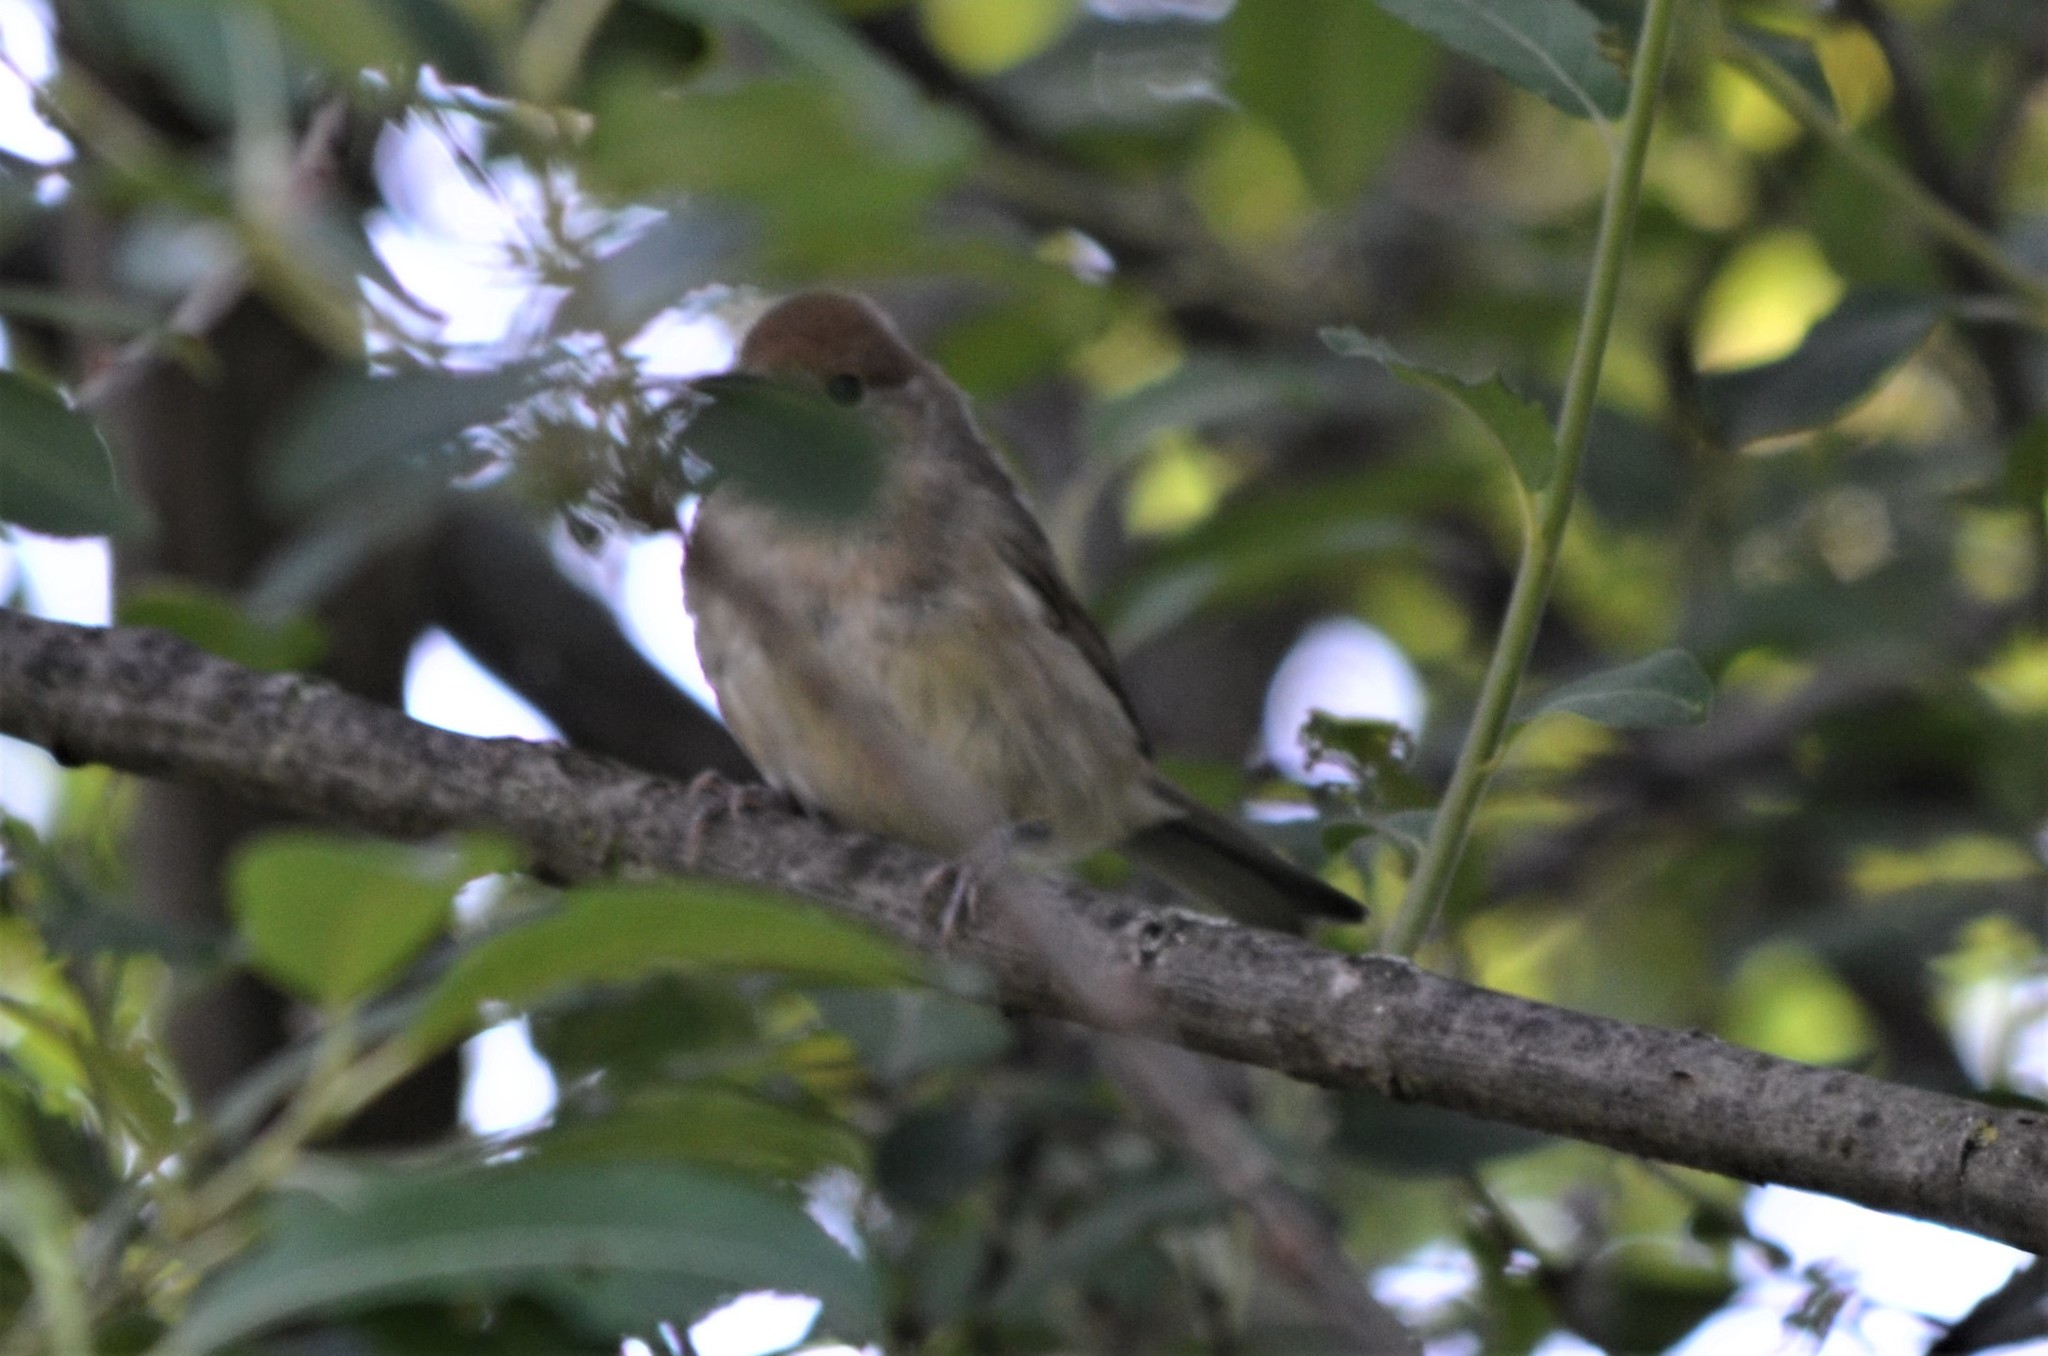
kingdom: Animalia
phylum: Chordata
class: Aves
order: Passeriformes
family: Sylviidae
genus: Sylvia
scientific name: Sylvia atricapilla
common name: Eurasian blackcap
